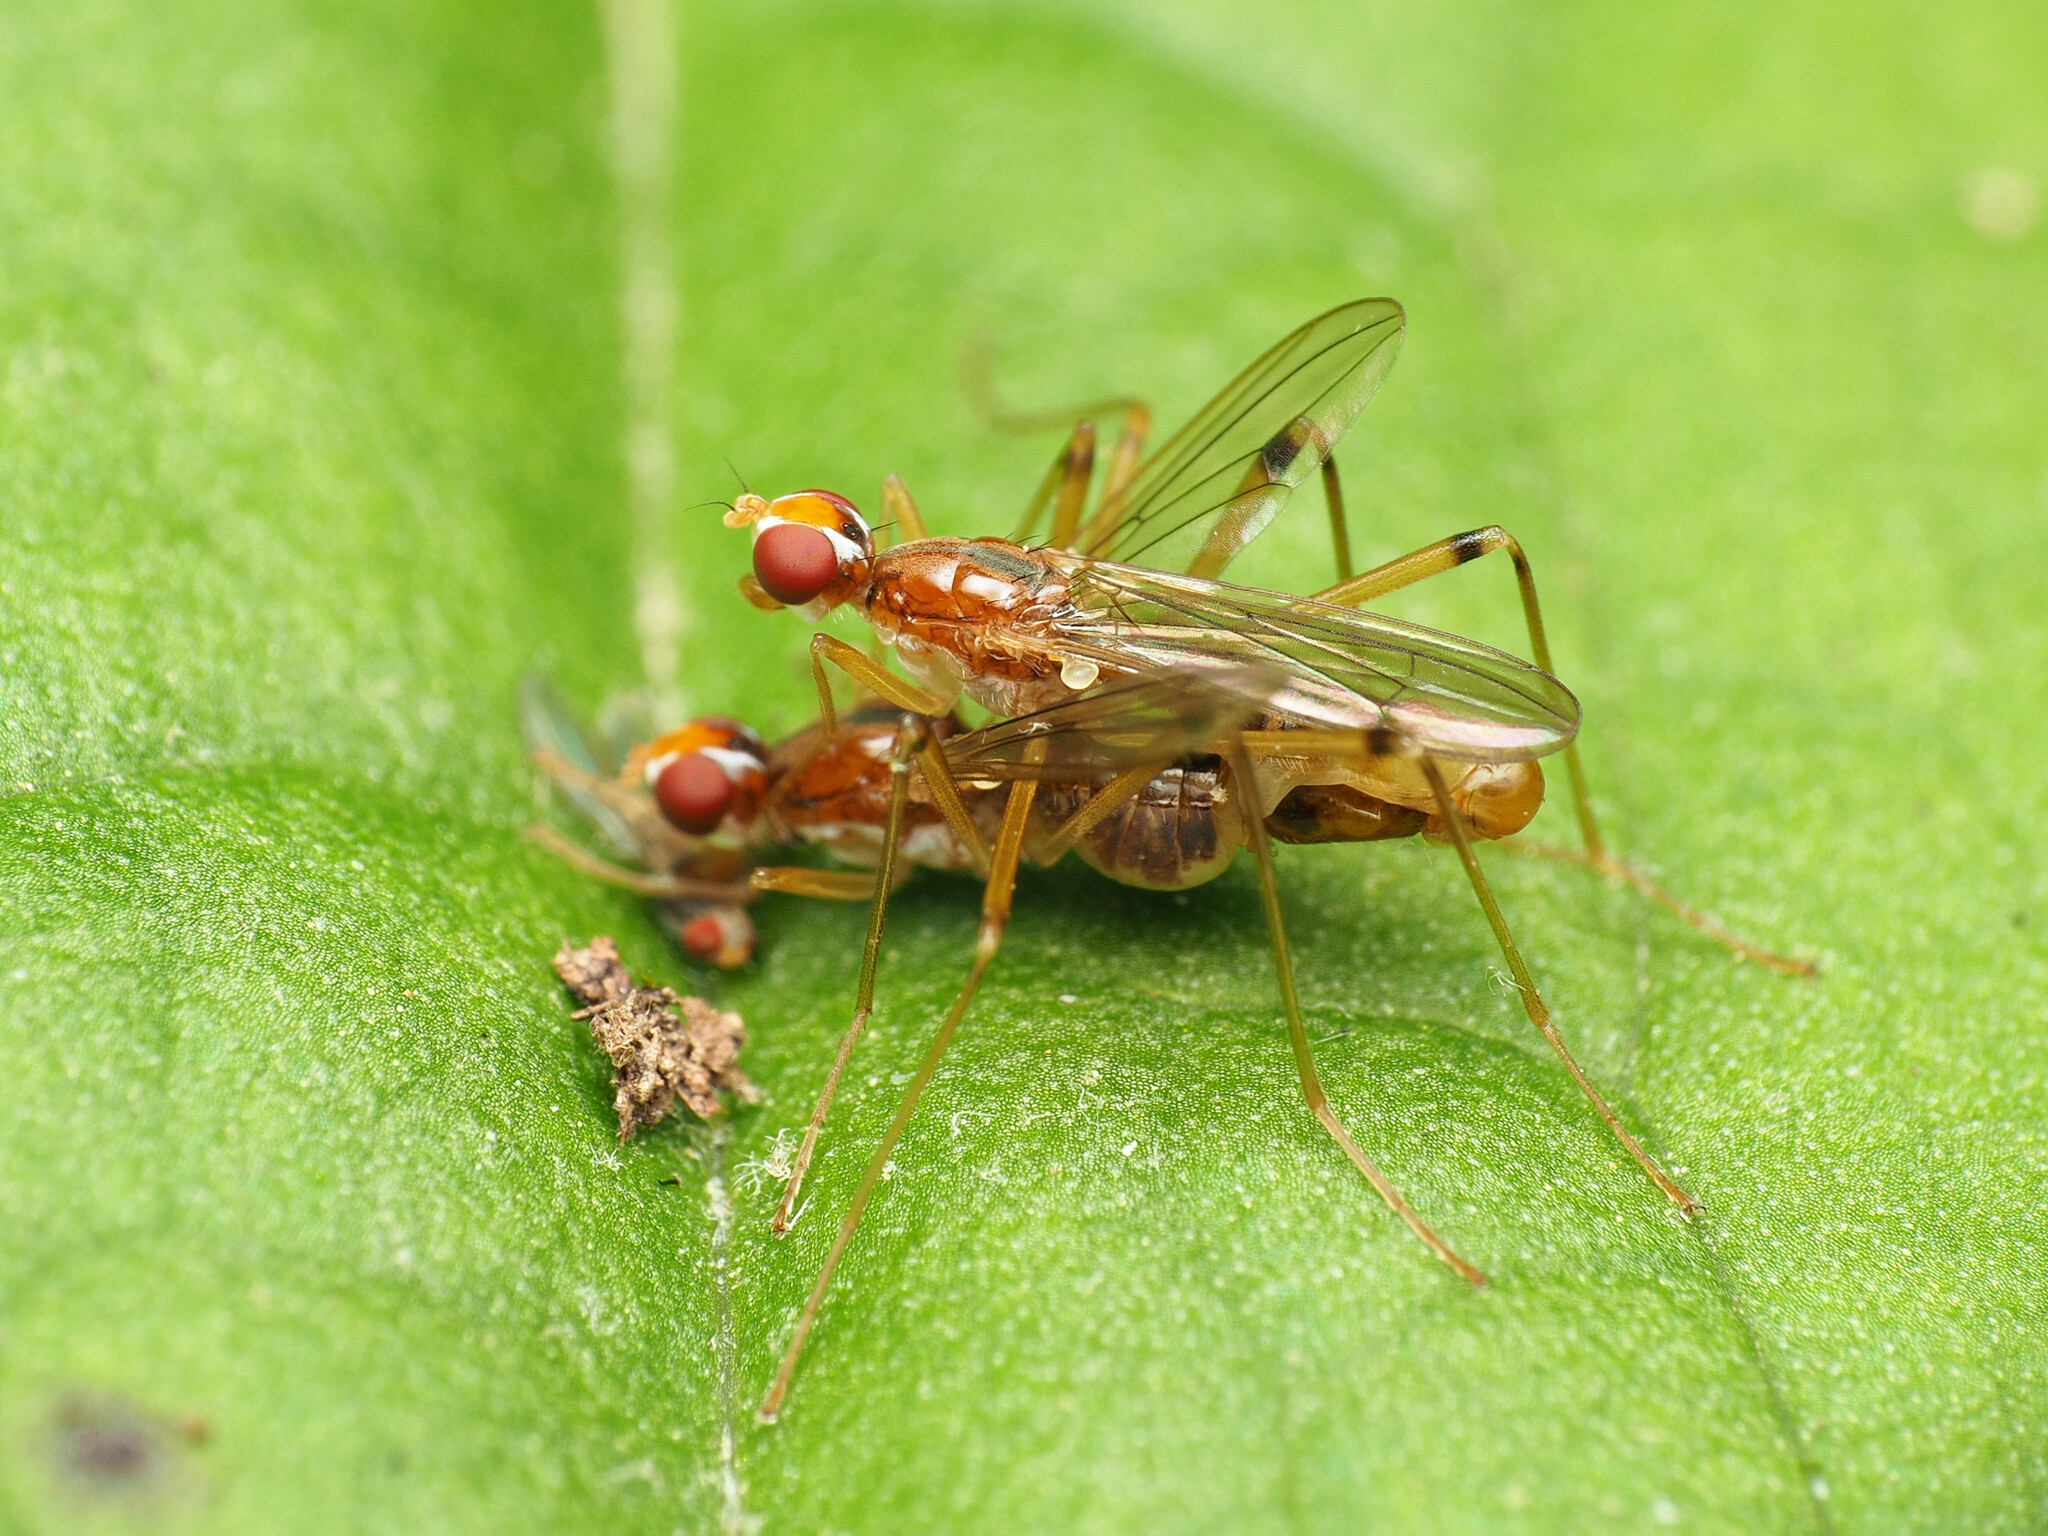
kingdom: Animalia
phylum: Arthropoda
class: Insecta
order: Diptera
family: Micropezidae
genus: Compsobata
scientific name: Compsobata univitta
